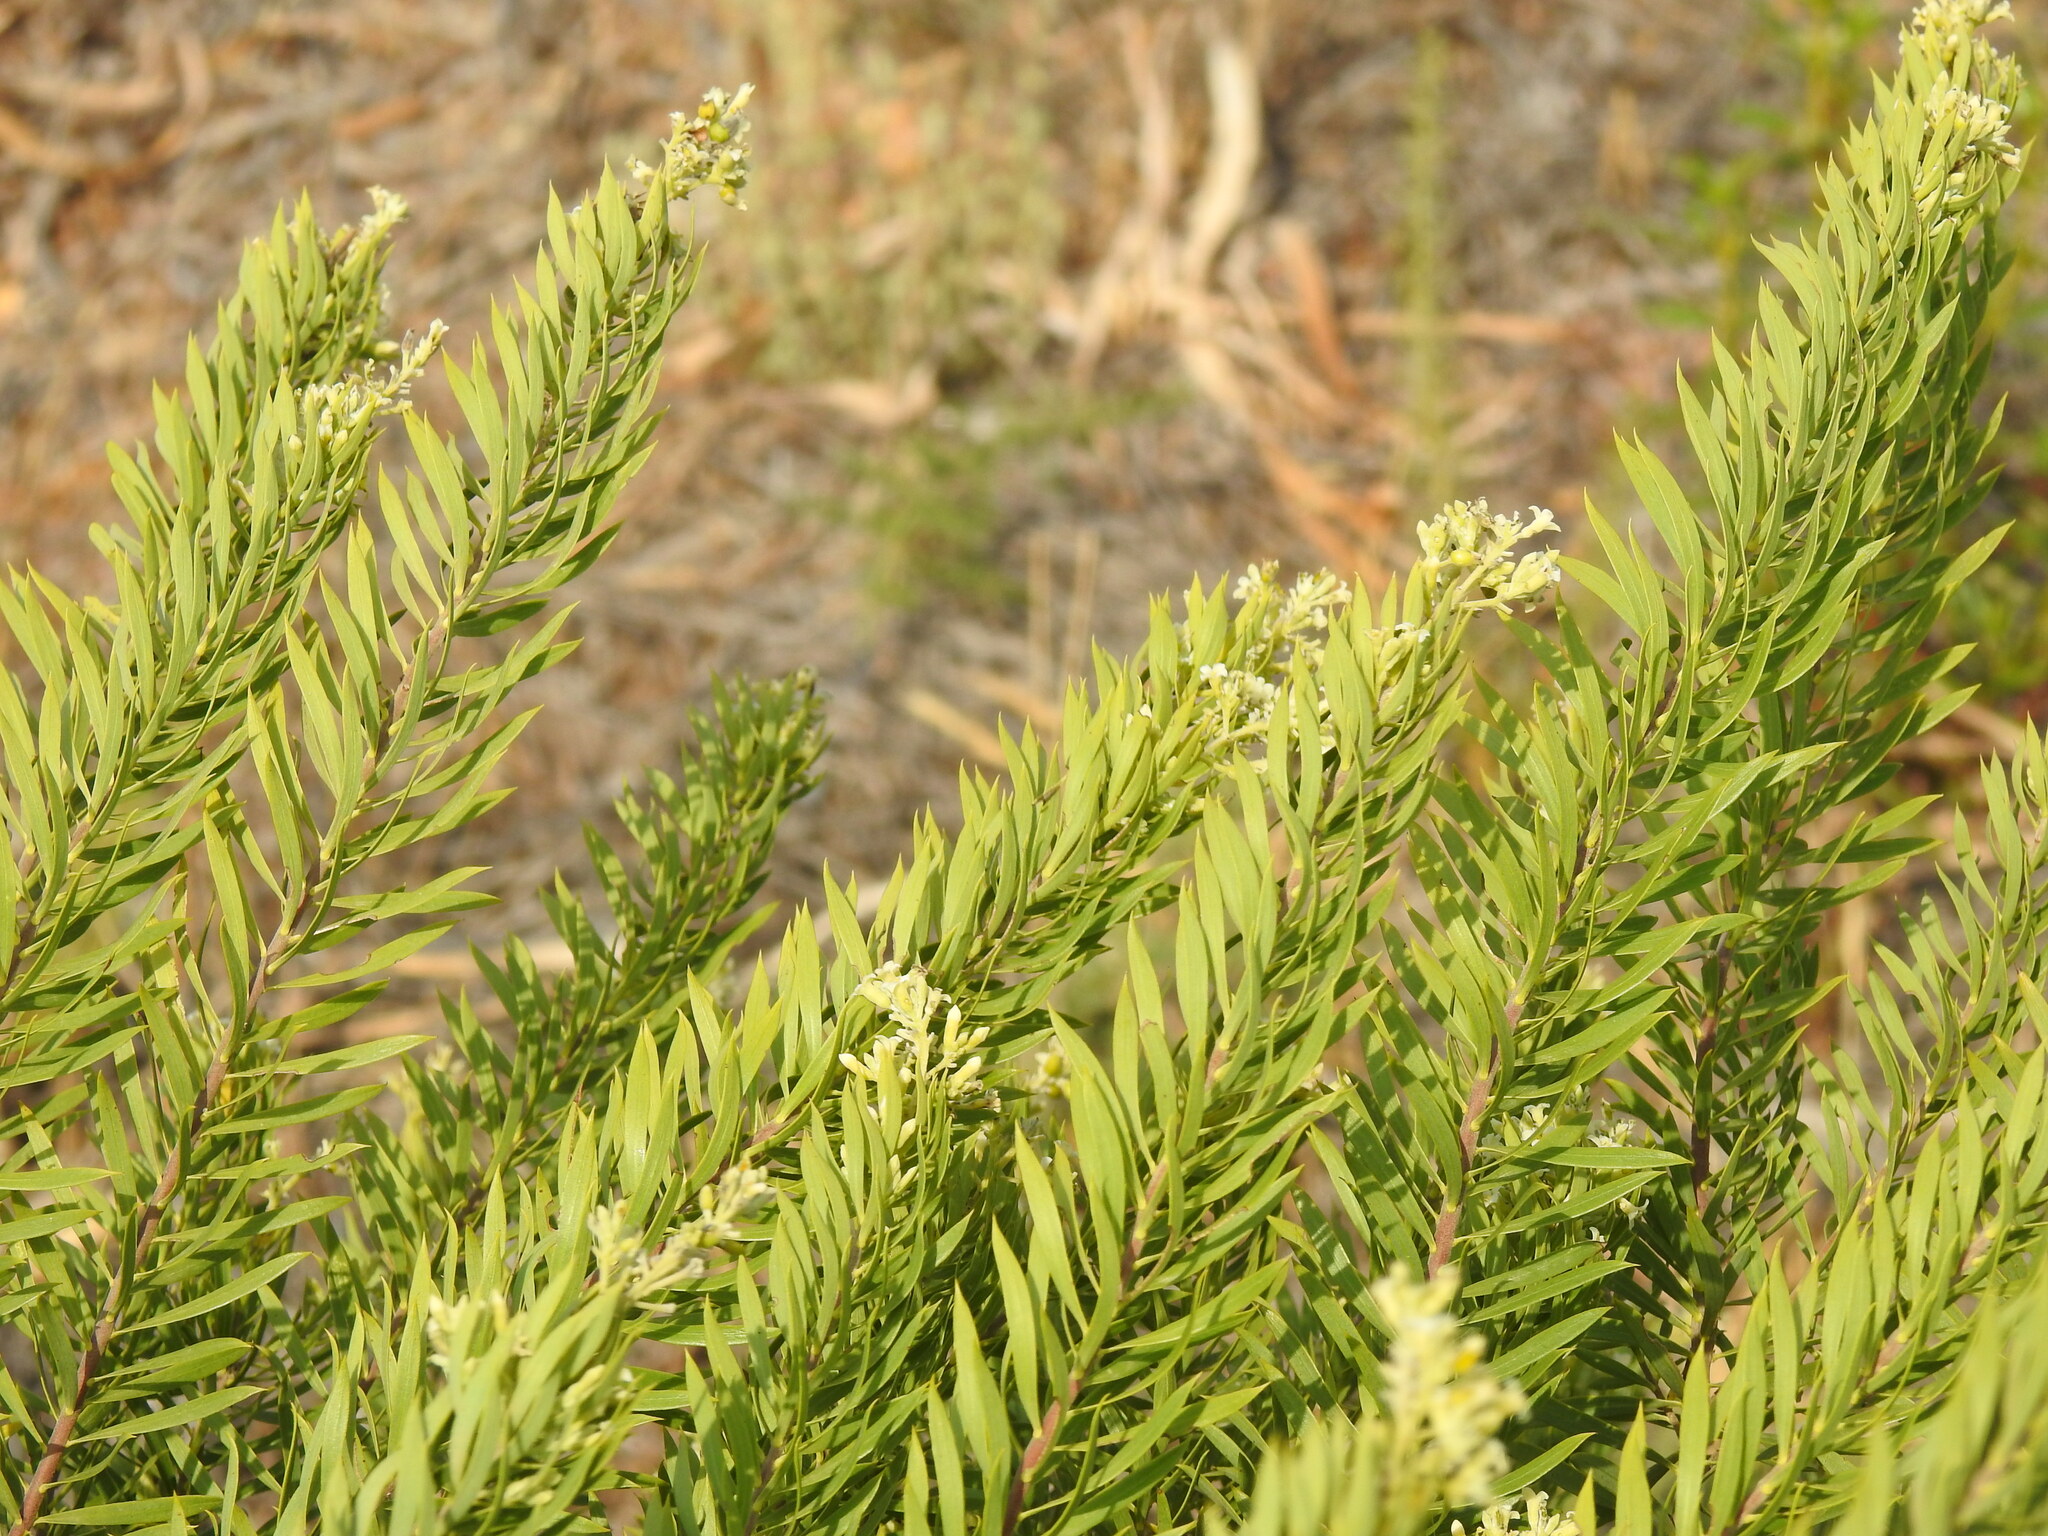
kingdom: Plantae
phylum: Tracheophyta
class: Magnoliopsida
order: Malvales
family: Thymelaeaceae
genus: Daphne
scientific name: Daphne gnidium
